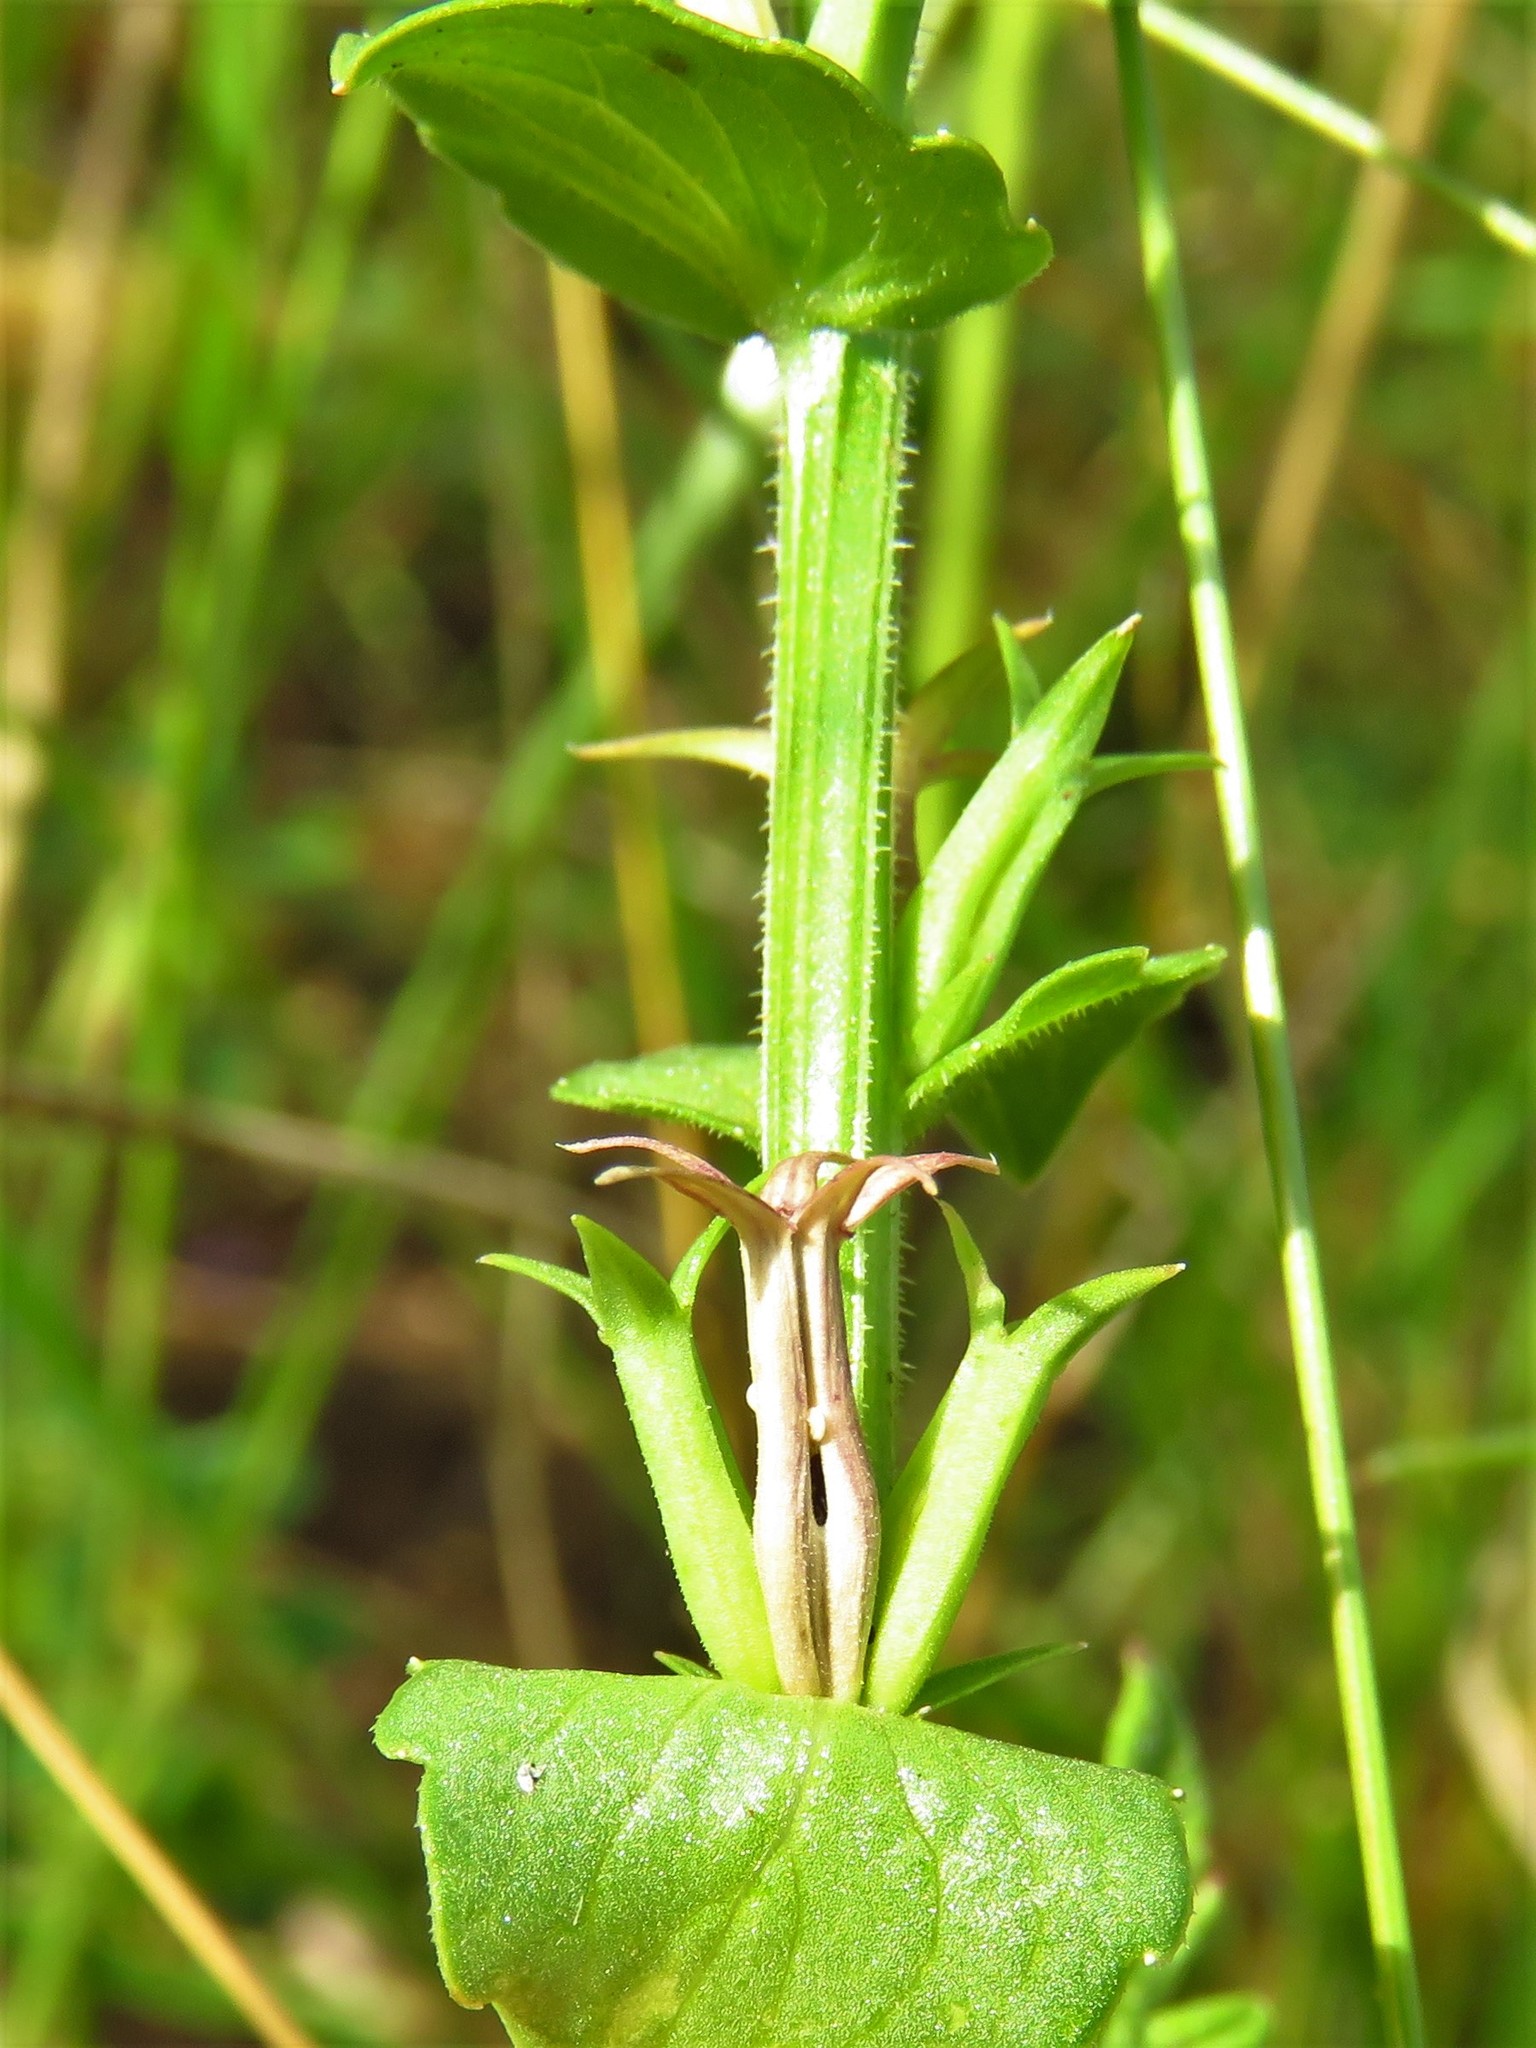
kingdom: Plantae
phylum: Tracheophyta
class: Magnoliopsida
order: Asterales
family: Campanulaceae
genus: Triodanis
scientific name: Triodanis holzingeri
